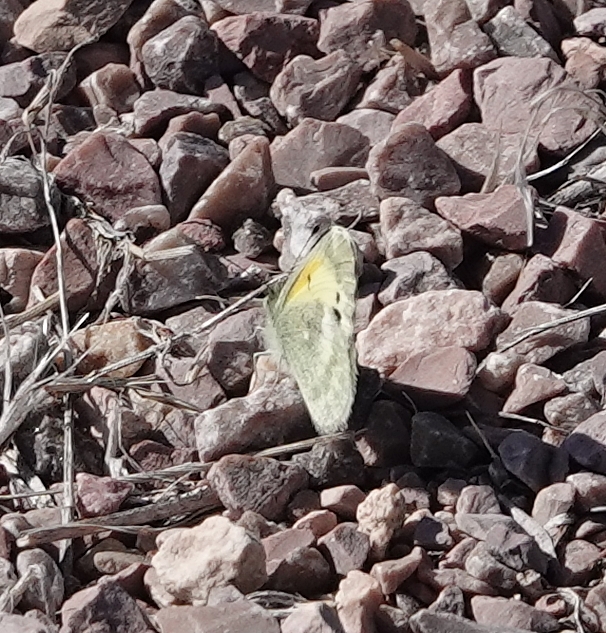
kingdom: Animalia
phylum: Arthropoda
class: Insecta
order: Lepidoptera
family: Pieridae
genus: Nathalis
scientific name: Nathalis iole
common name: Dainty sulphur
